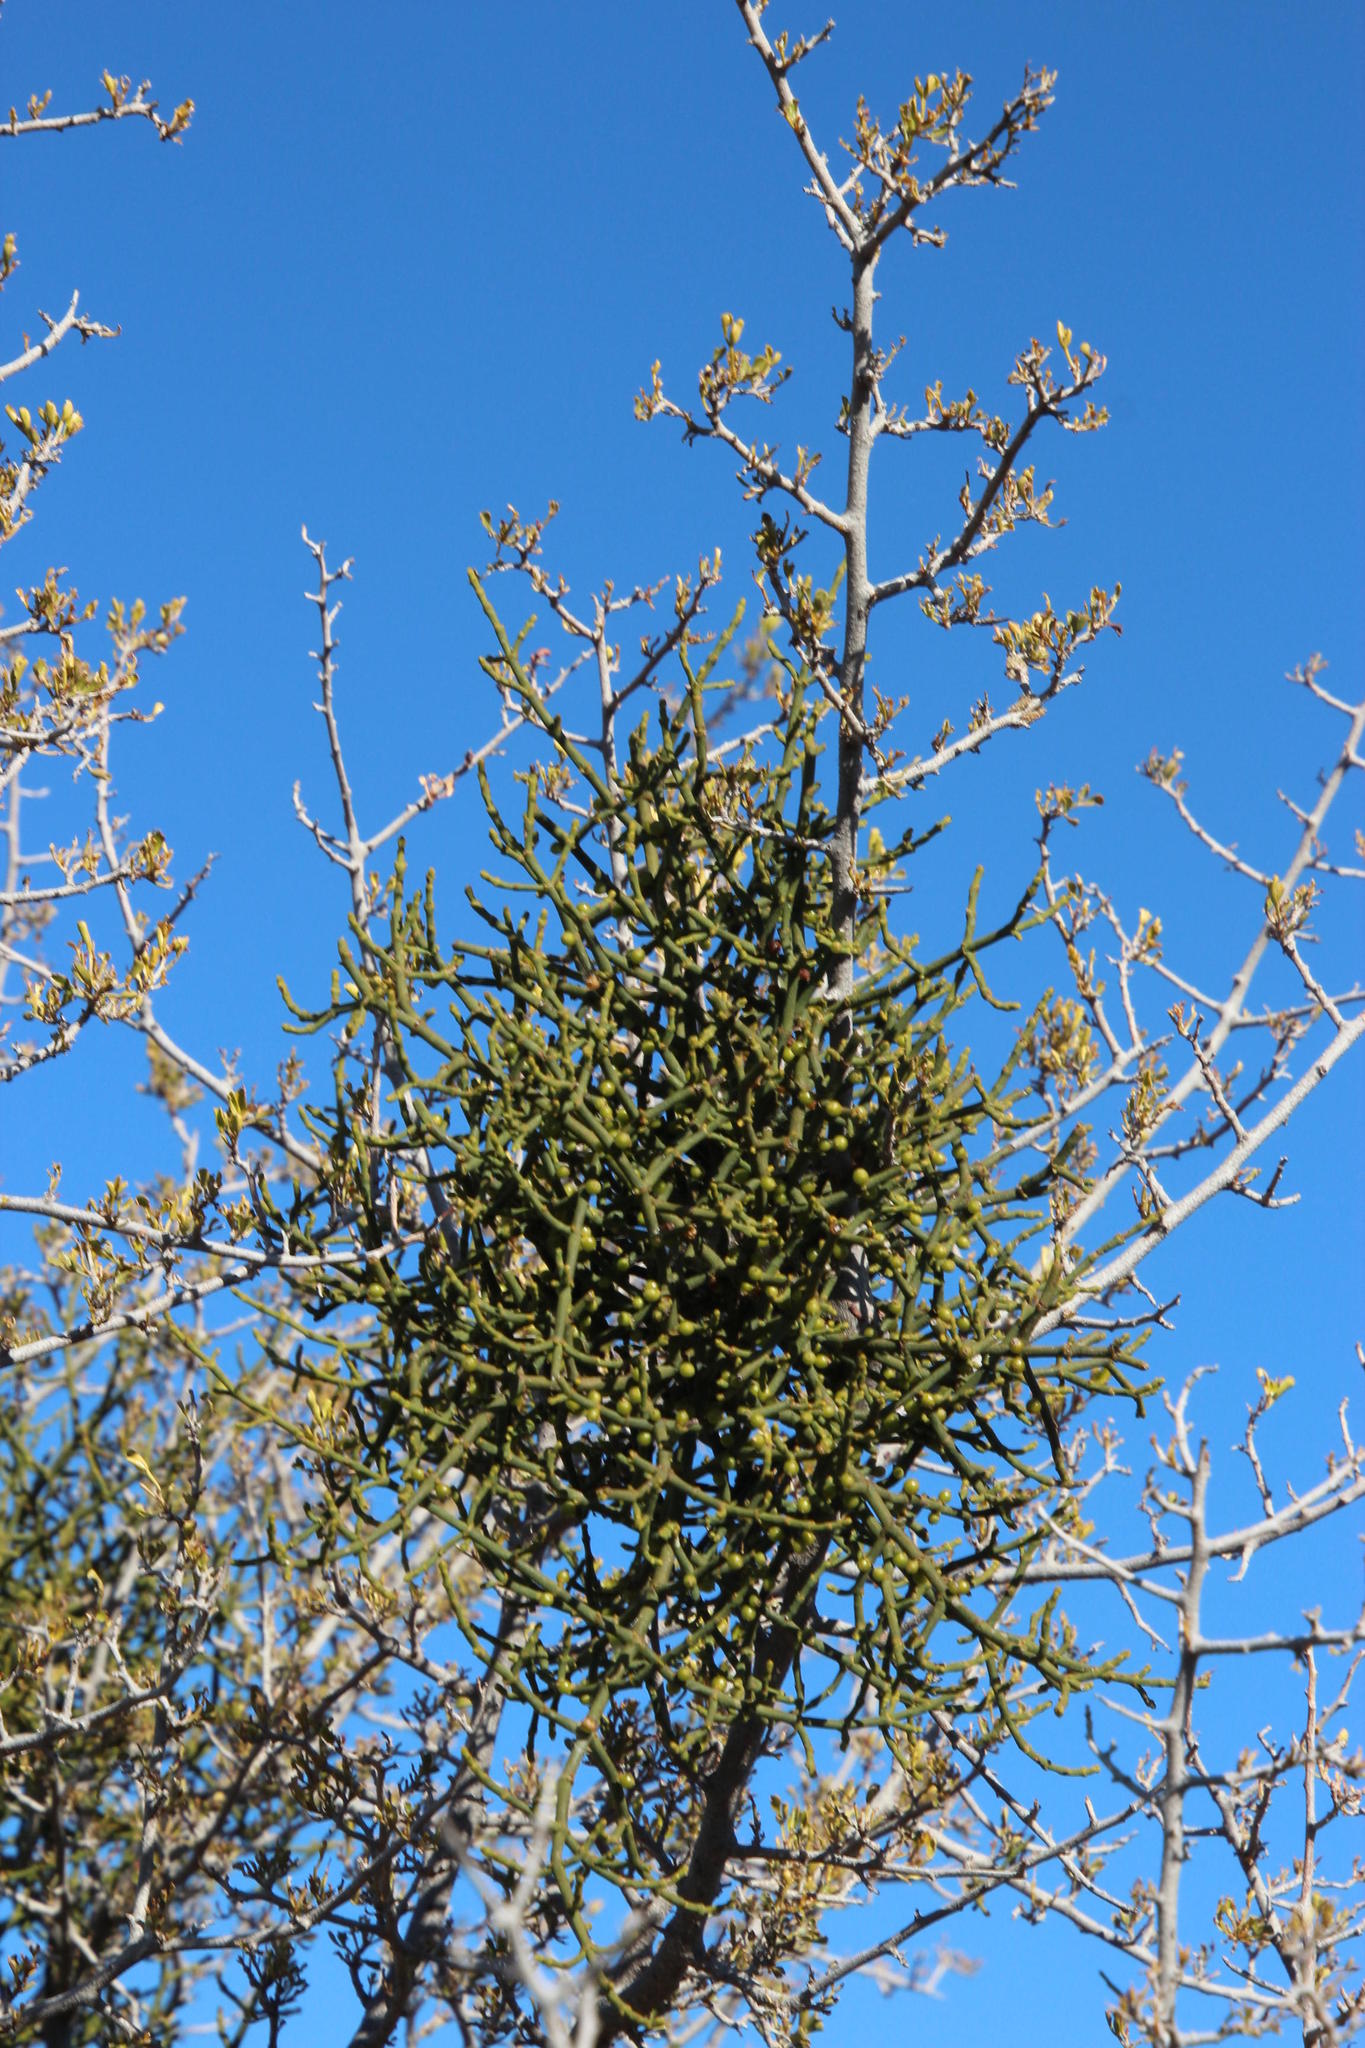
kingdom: Plantae
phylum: Tracheophyta
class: Magnoliopsida
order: Santalales
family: Viscaceae
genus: Viscum
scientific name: Viscum capense
